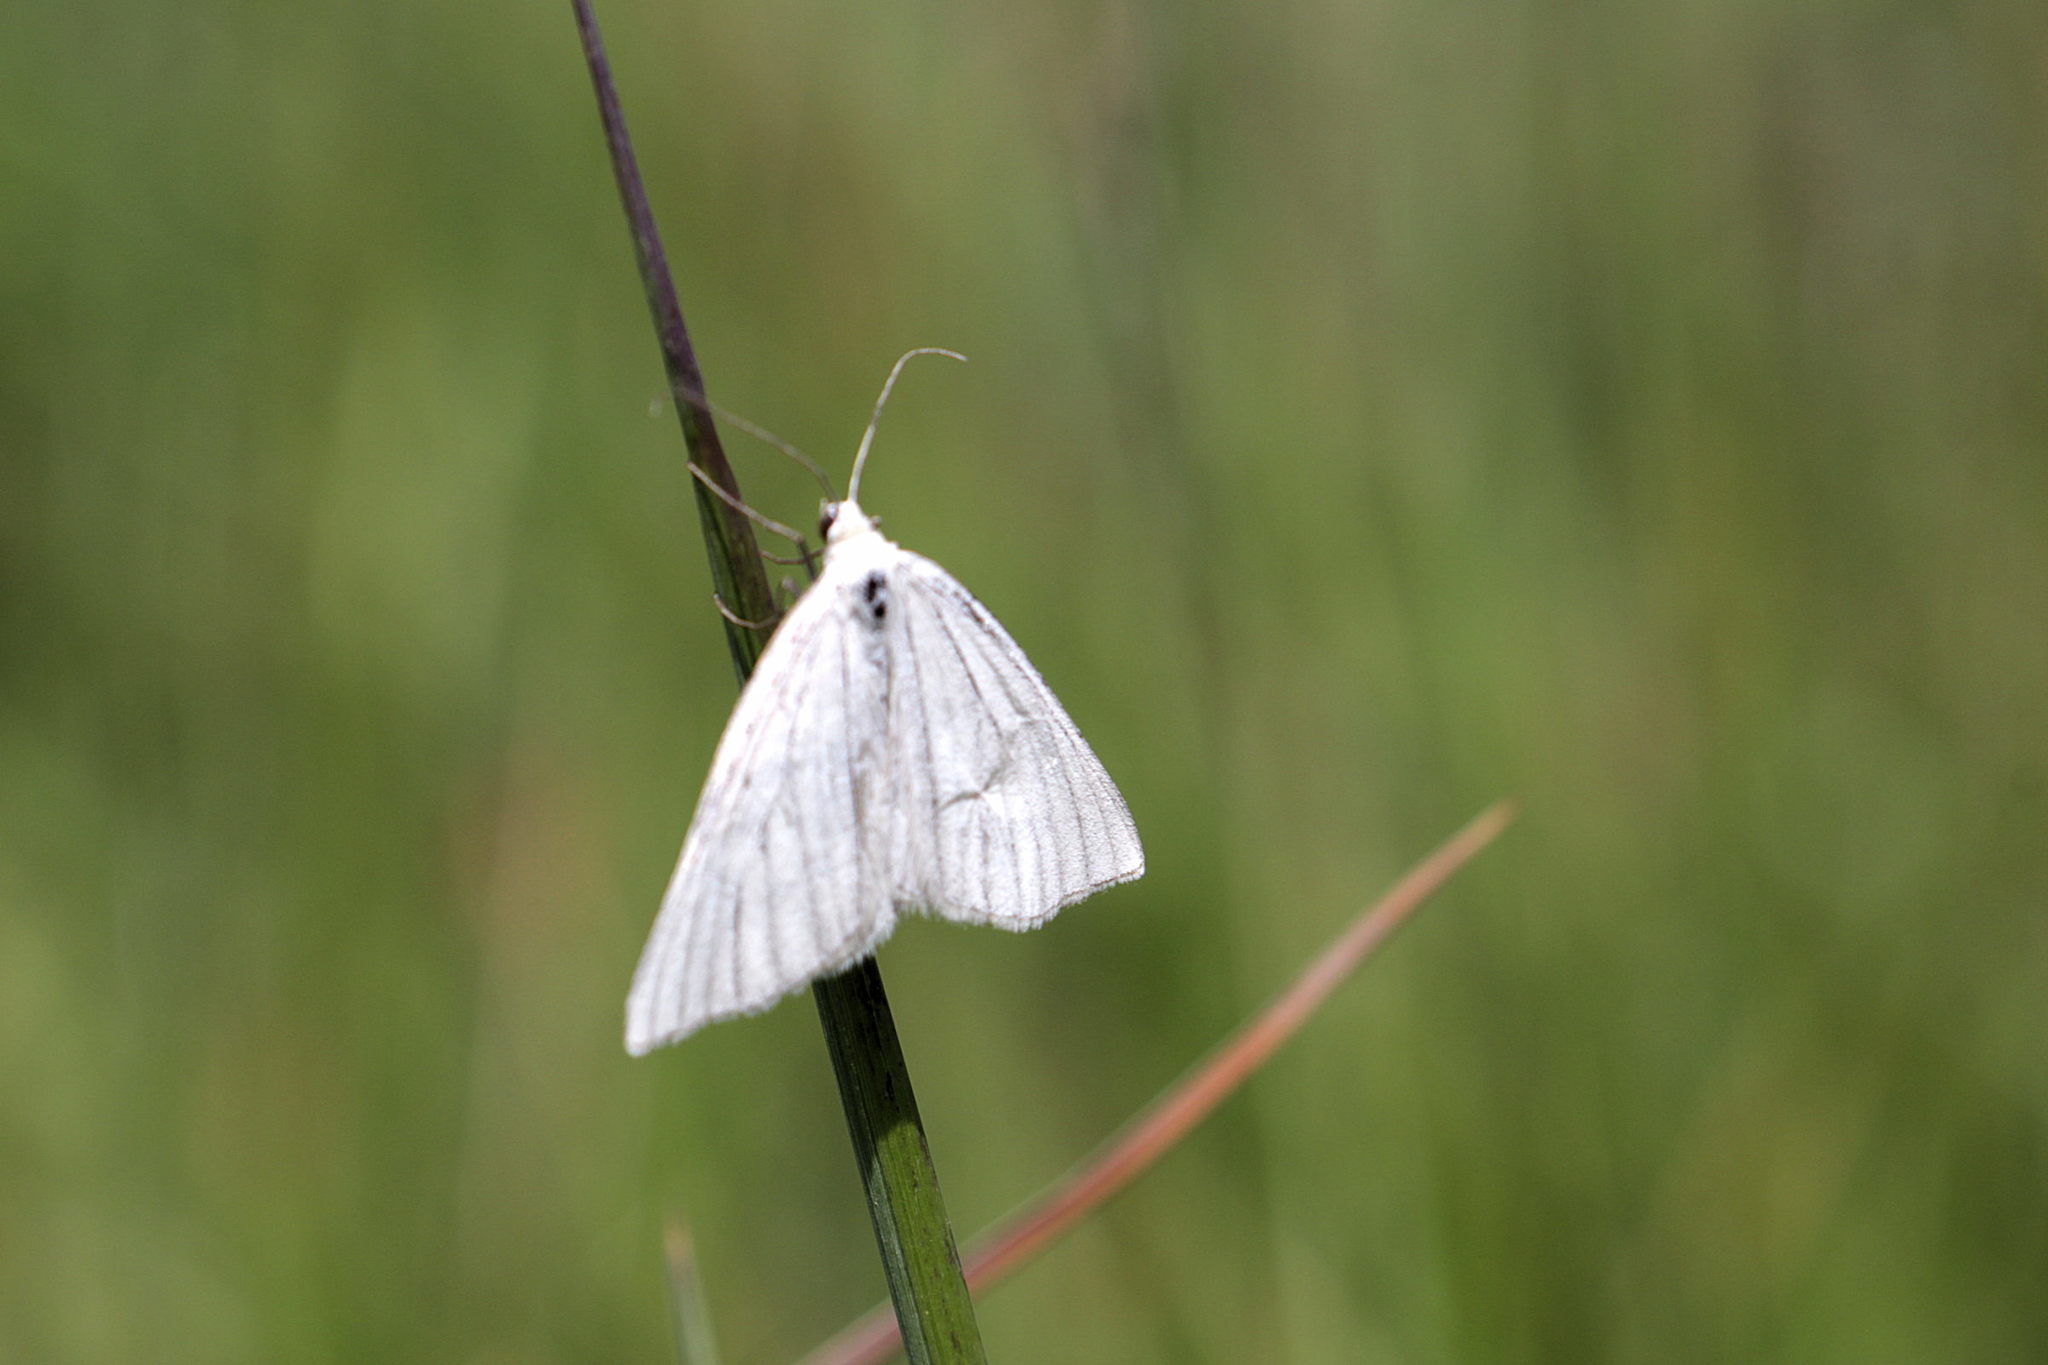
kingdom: Animalia
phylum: Arthropoda
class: Insecta
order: Lepidoptera
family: Geometridae
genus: Siona
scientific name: Siona lineata
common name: Black-veined moth
